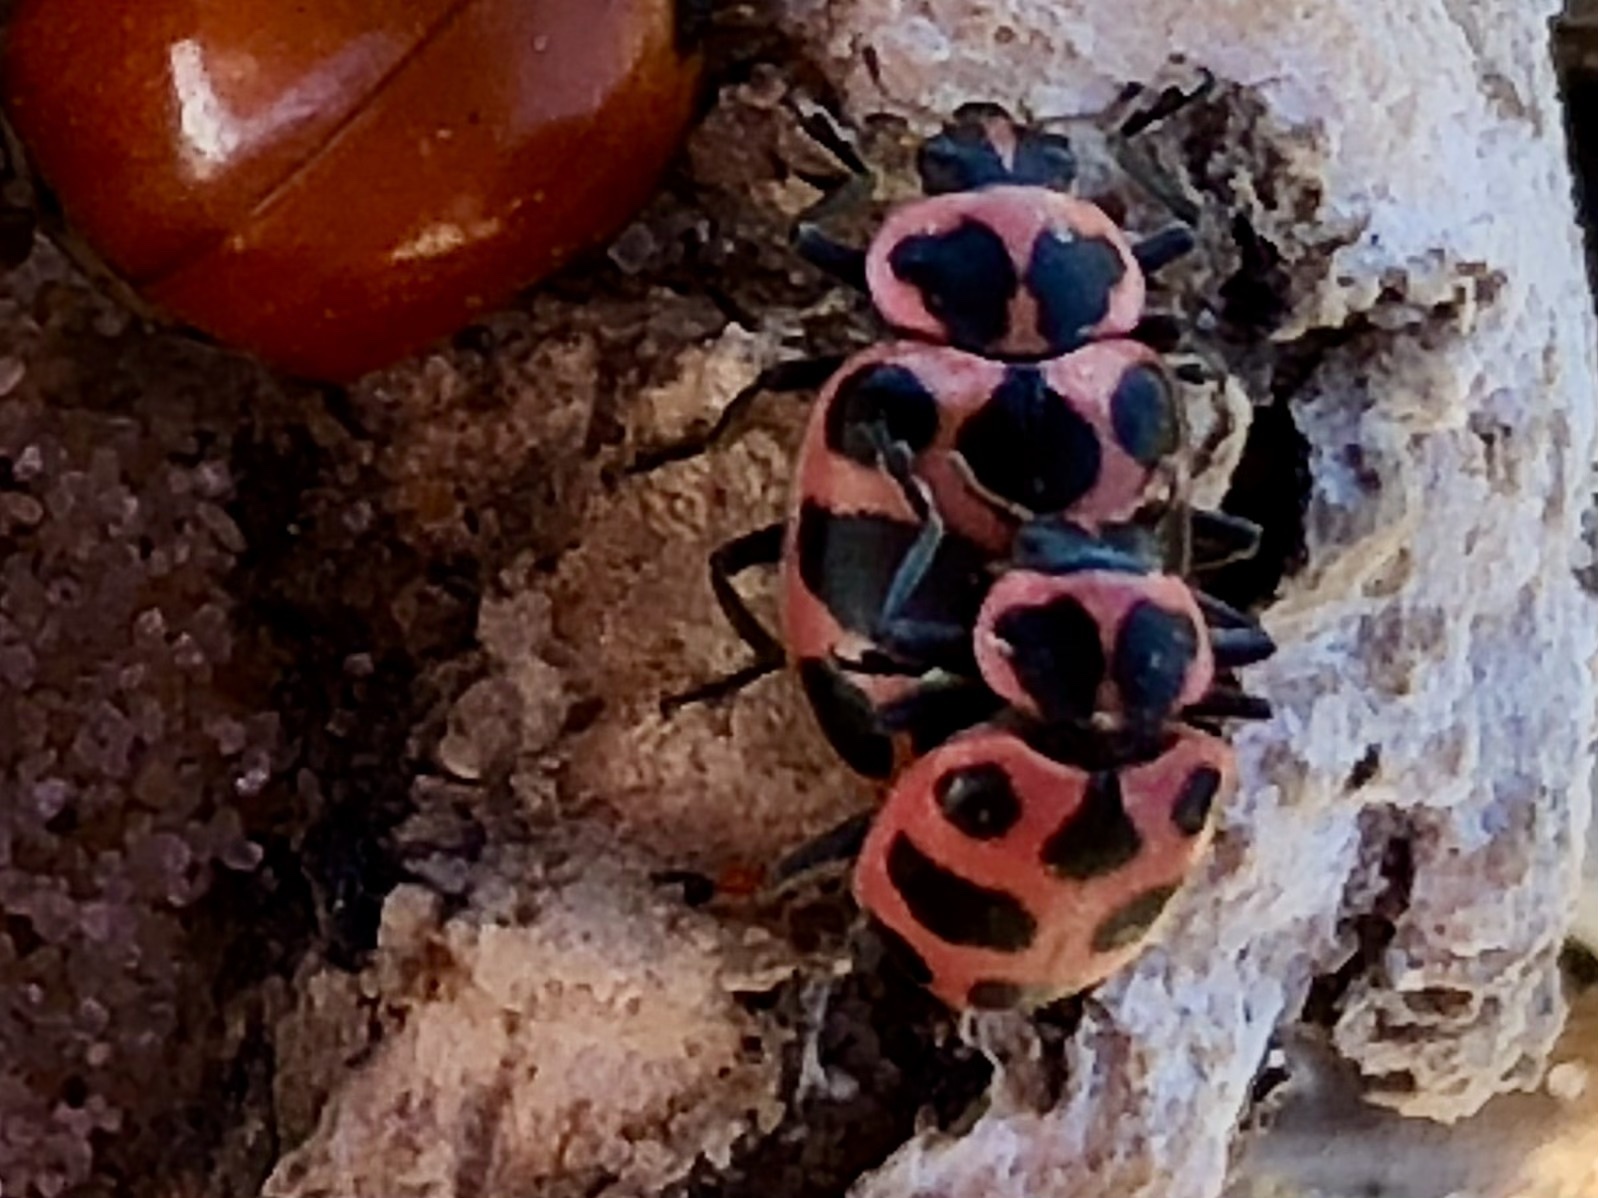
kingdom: Animalia
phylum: Arthropoda
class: Insecta
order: Coleoptera
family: Coccinellidae
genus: Coleomegilla
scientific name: Coleomegilla maculata
